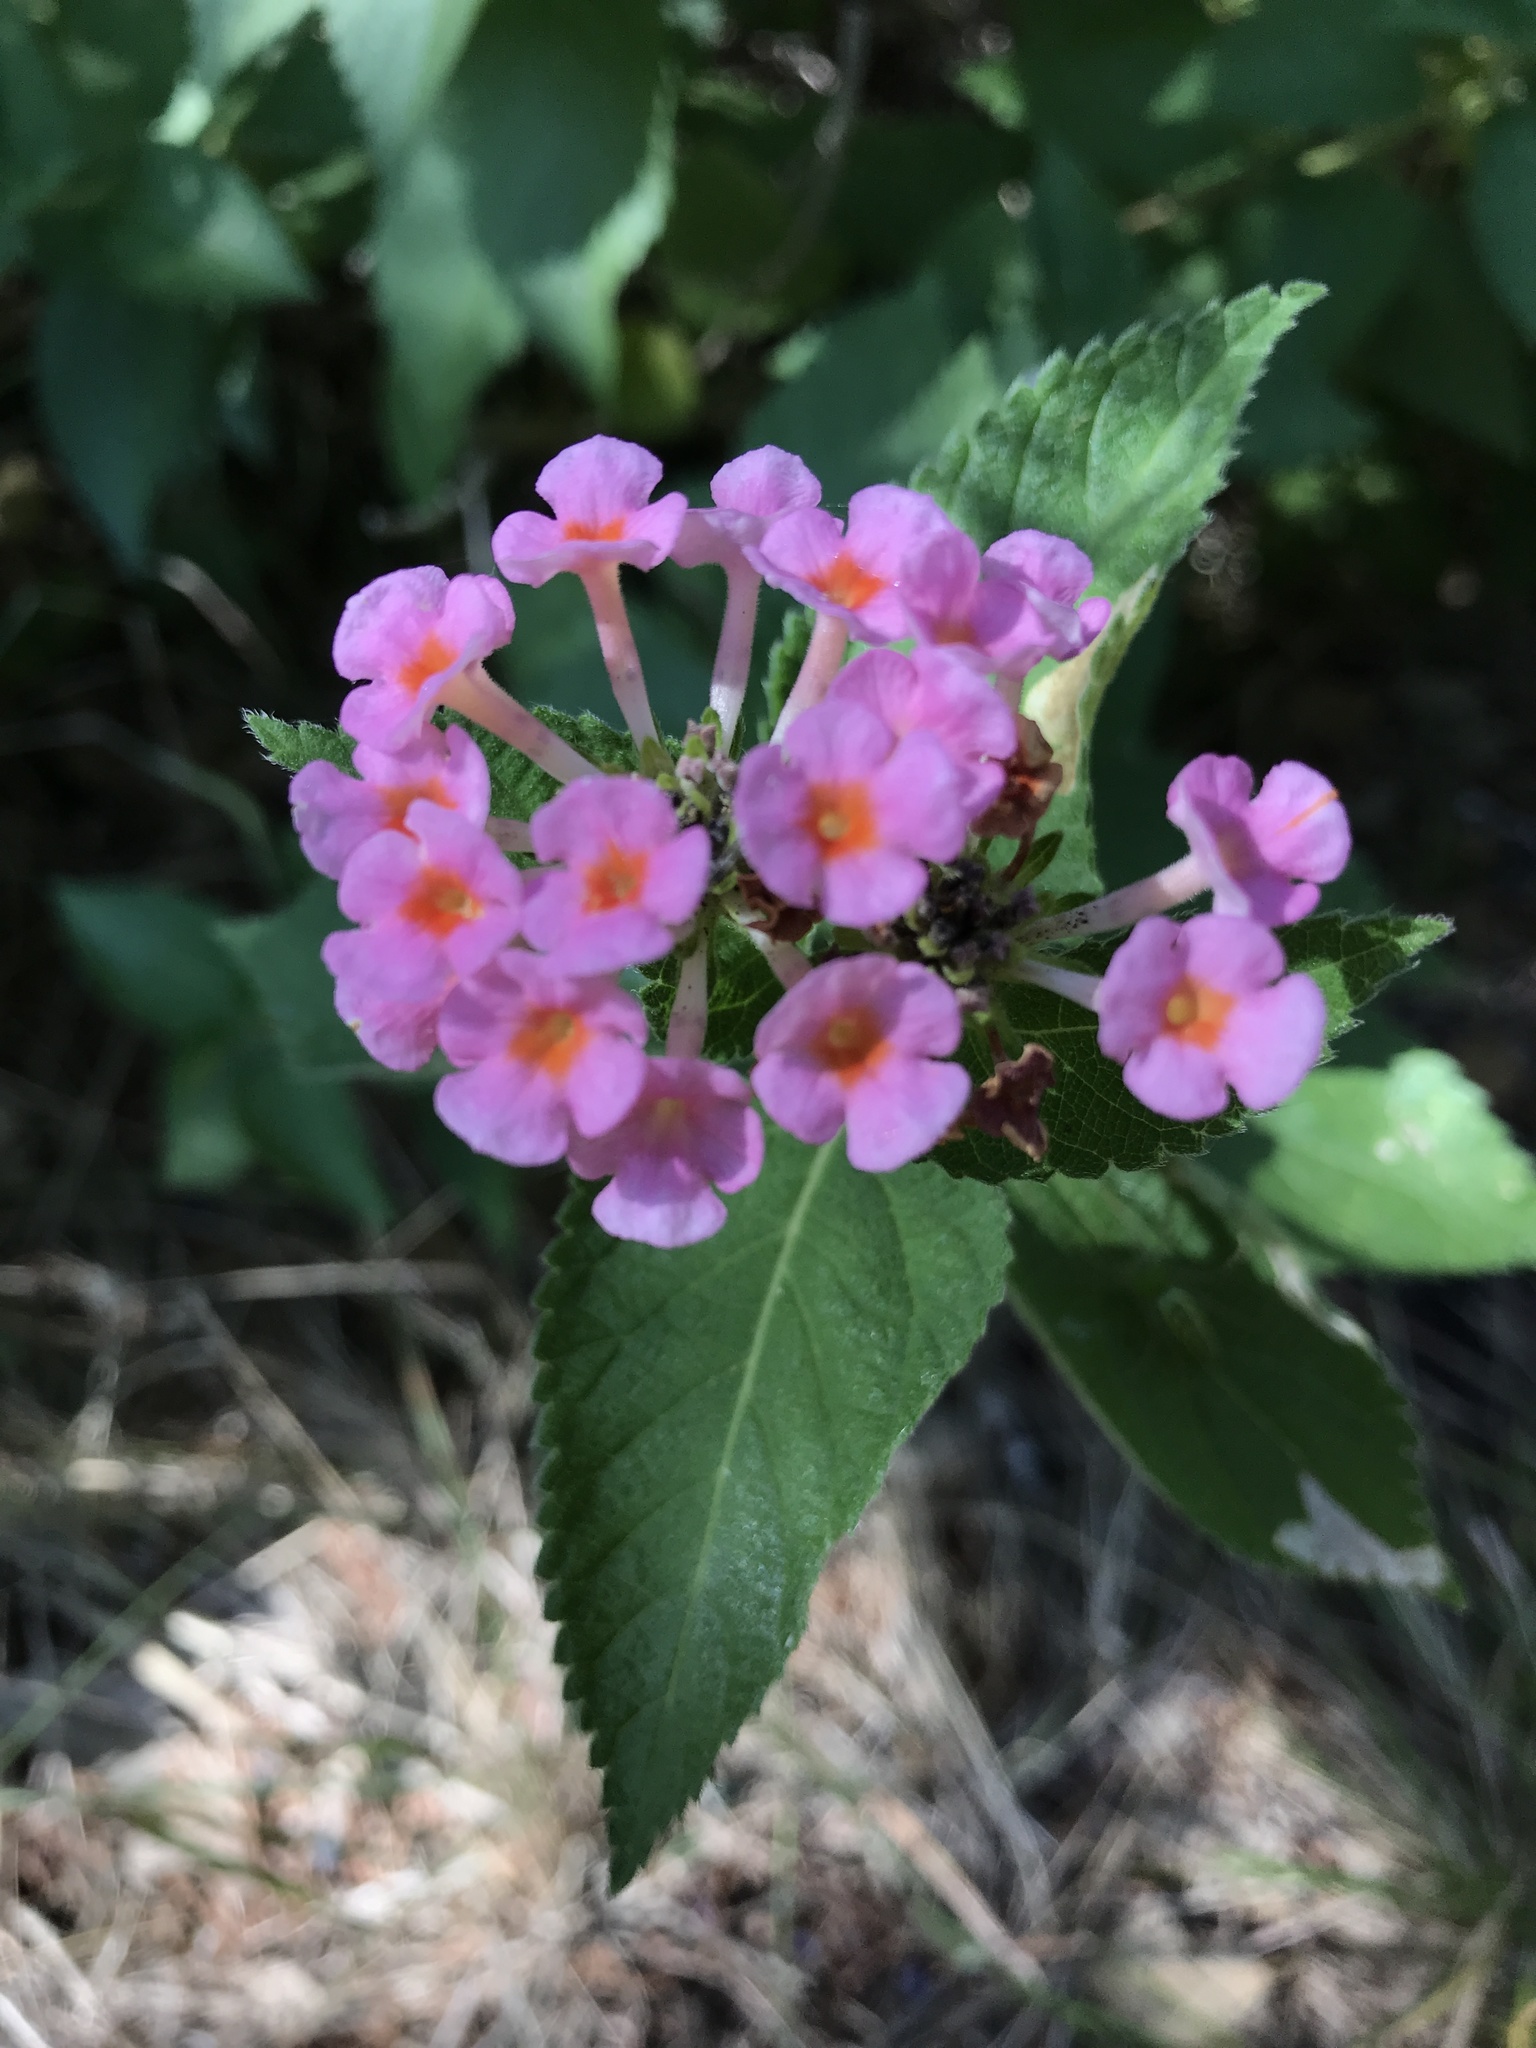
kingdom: Plantae
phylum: Tracheophyta
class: Magnoliopsida
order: Lamiales
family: Verbenaceae
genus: Lantana
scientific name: Lantana strigocamara
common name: Lantana
